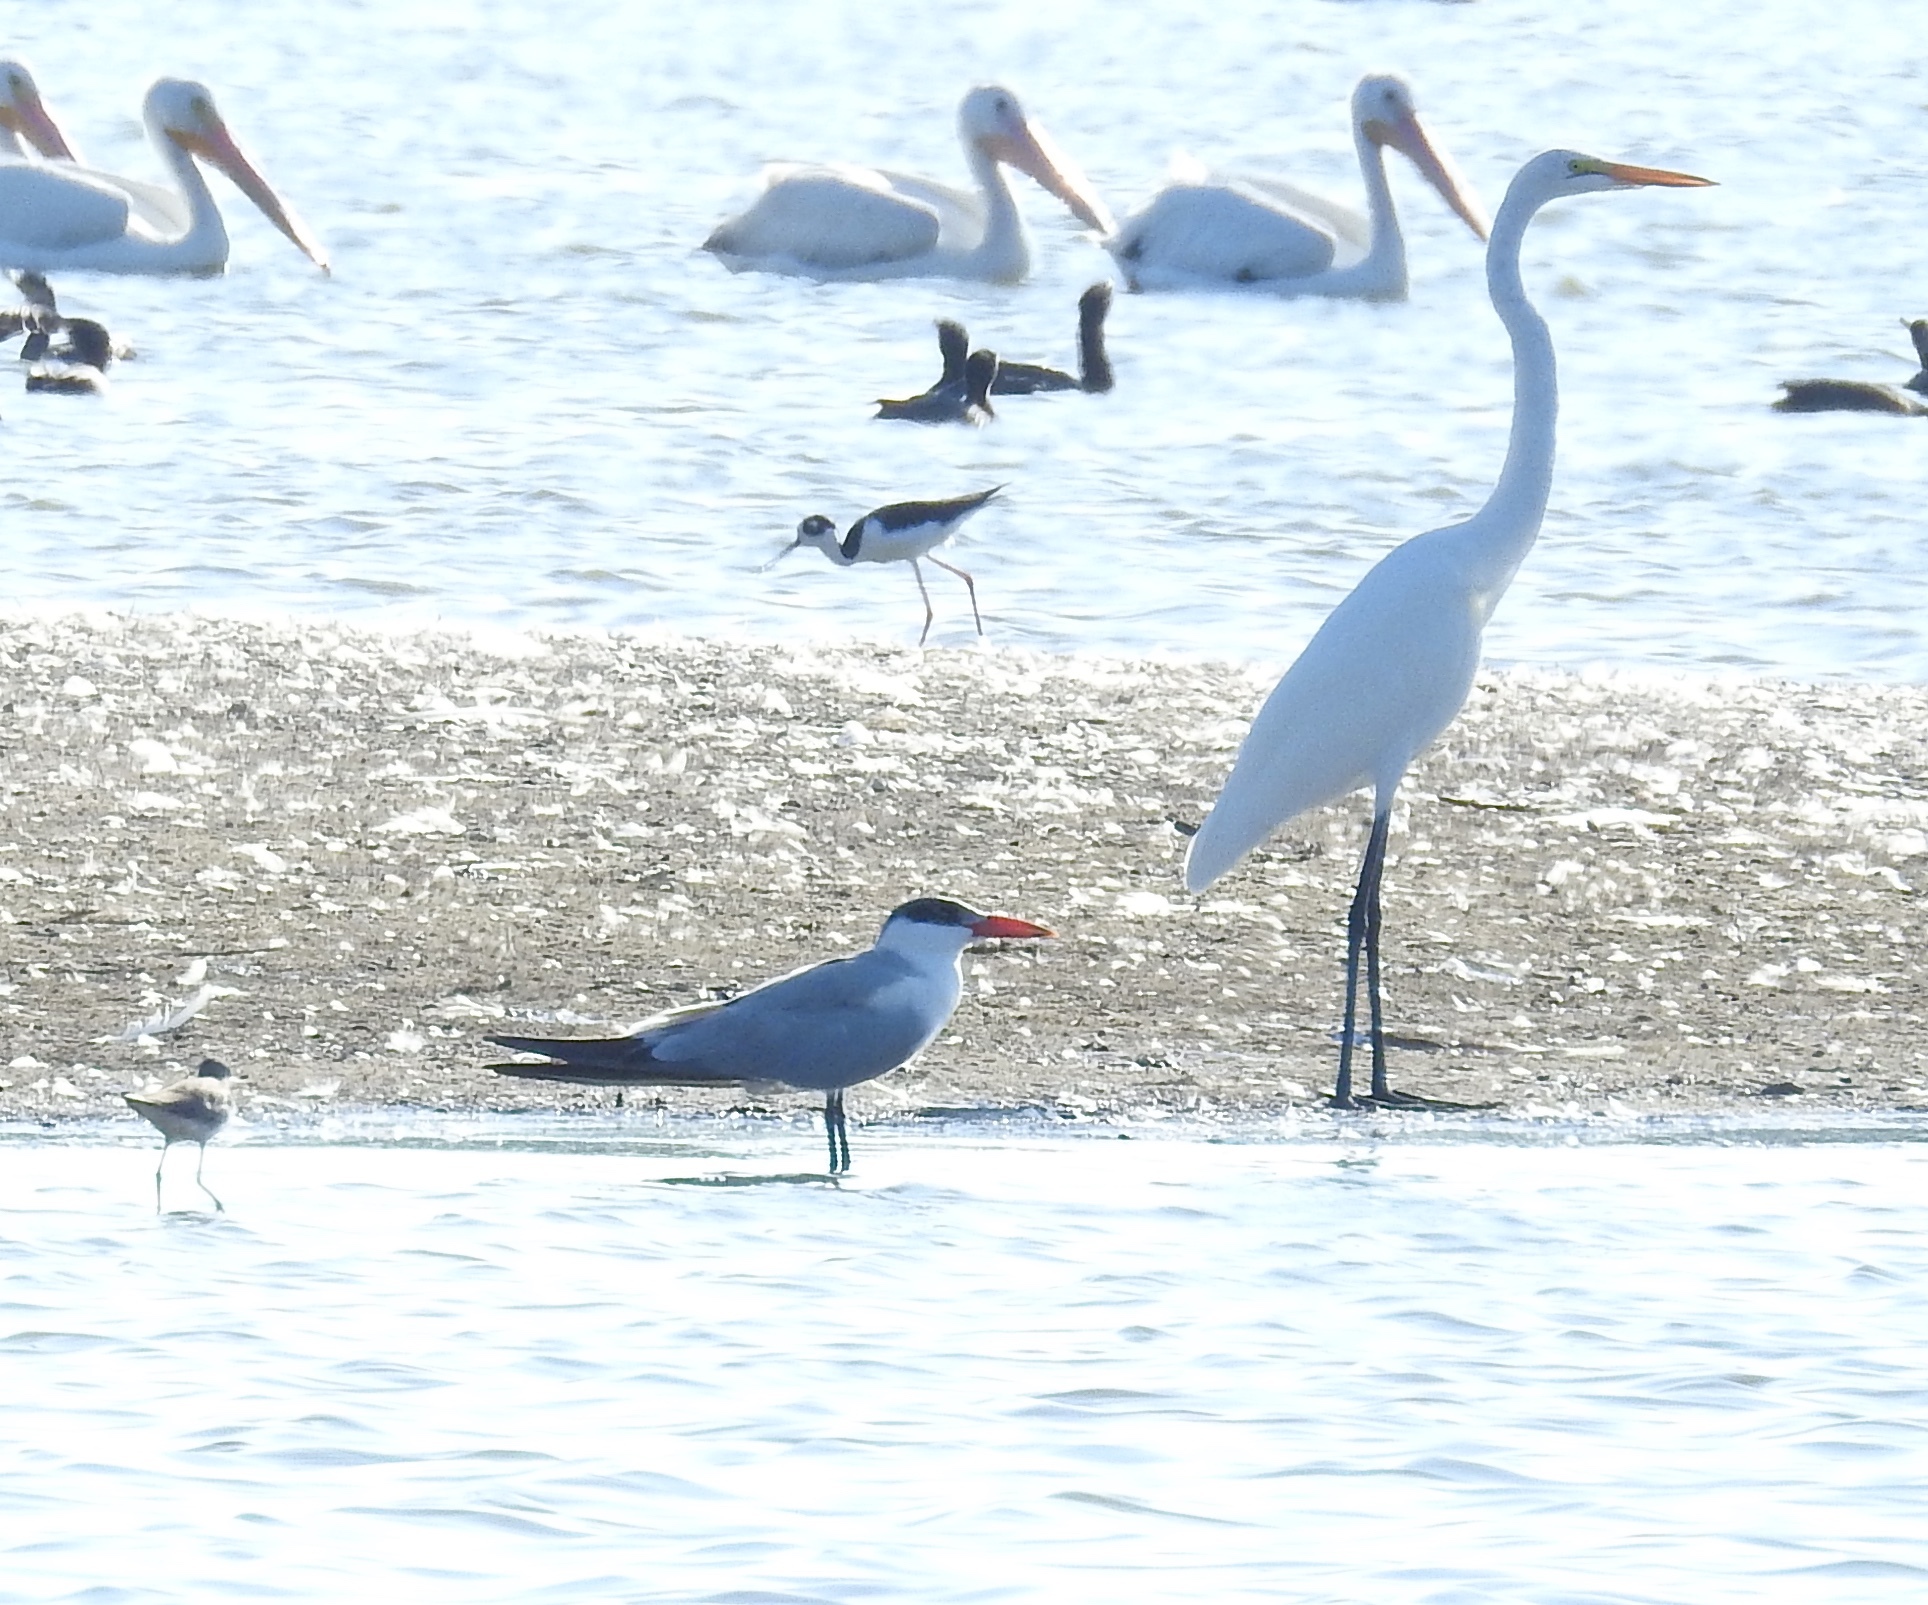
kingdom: Animalia
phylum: Chordata
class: Aves
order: Charadriiformes
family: Laridae
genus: Hydroprogne
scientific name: Hydroprogne caspia
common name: Caspian tern
